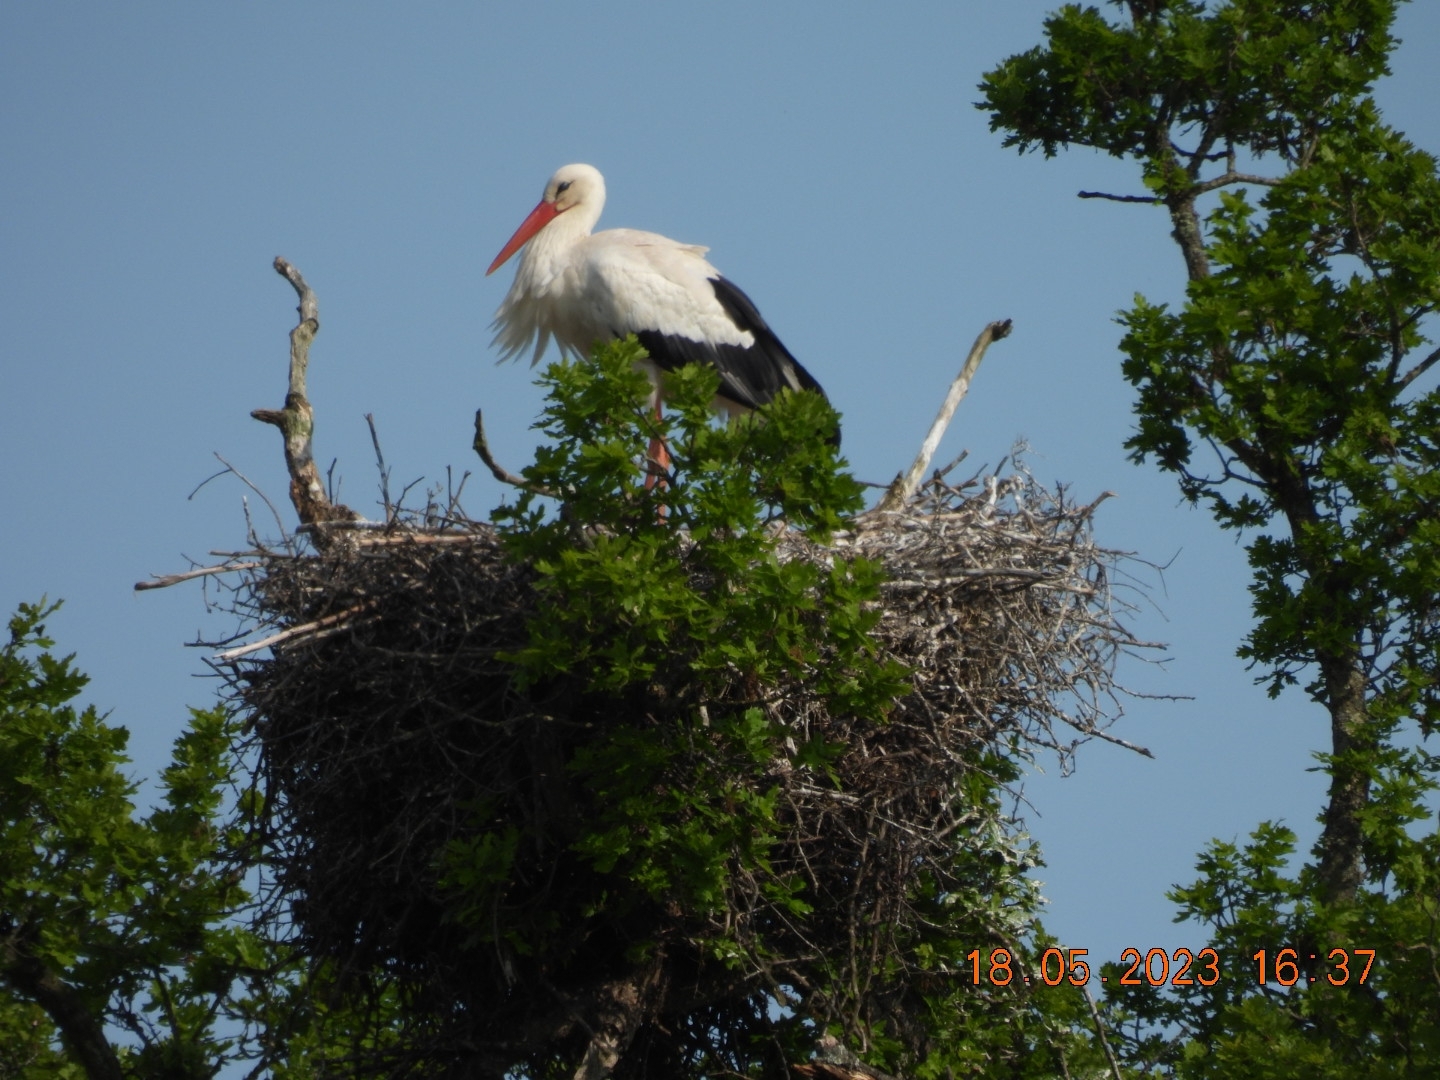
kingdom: Animalia
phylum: Chordata
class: Aves
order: Ciconiiformes
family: Ciconiidae
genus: Ciconia
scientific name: Ciconia ciconia
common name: White stork
